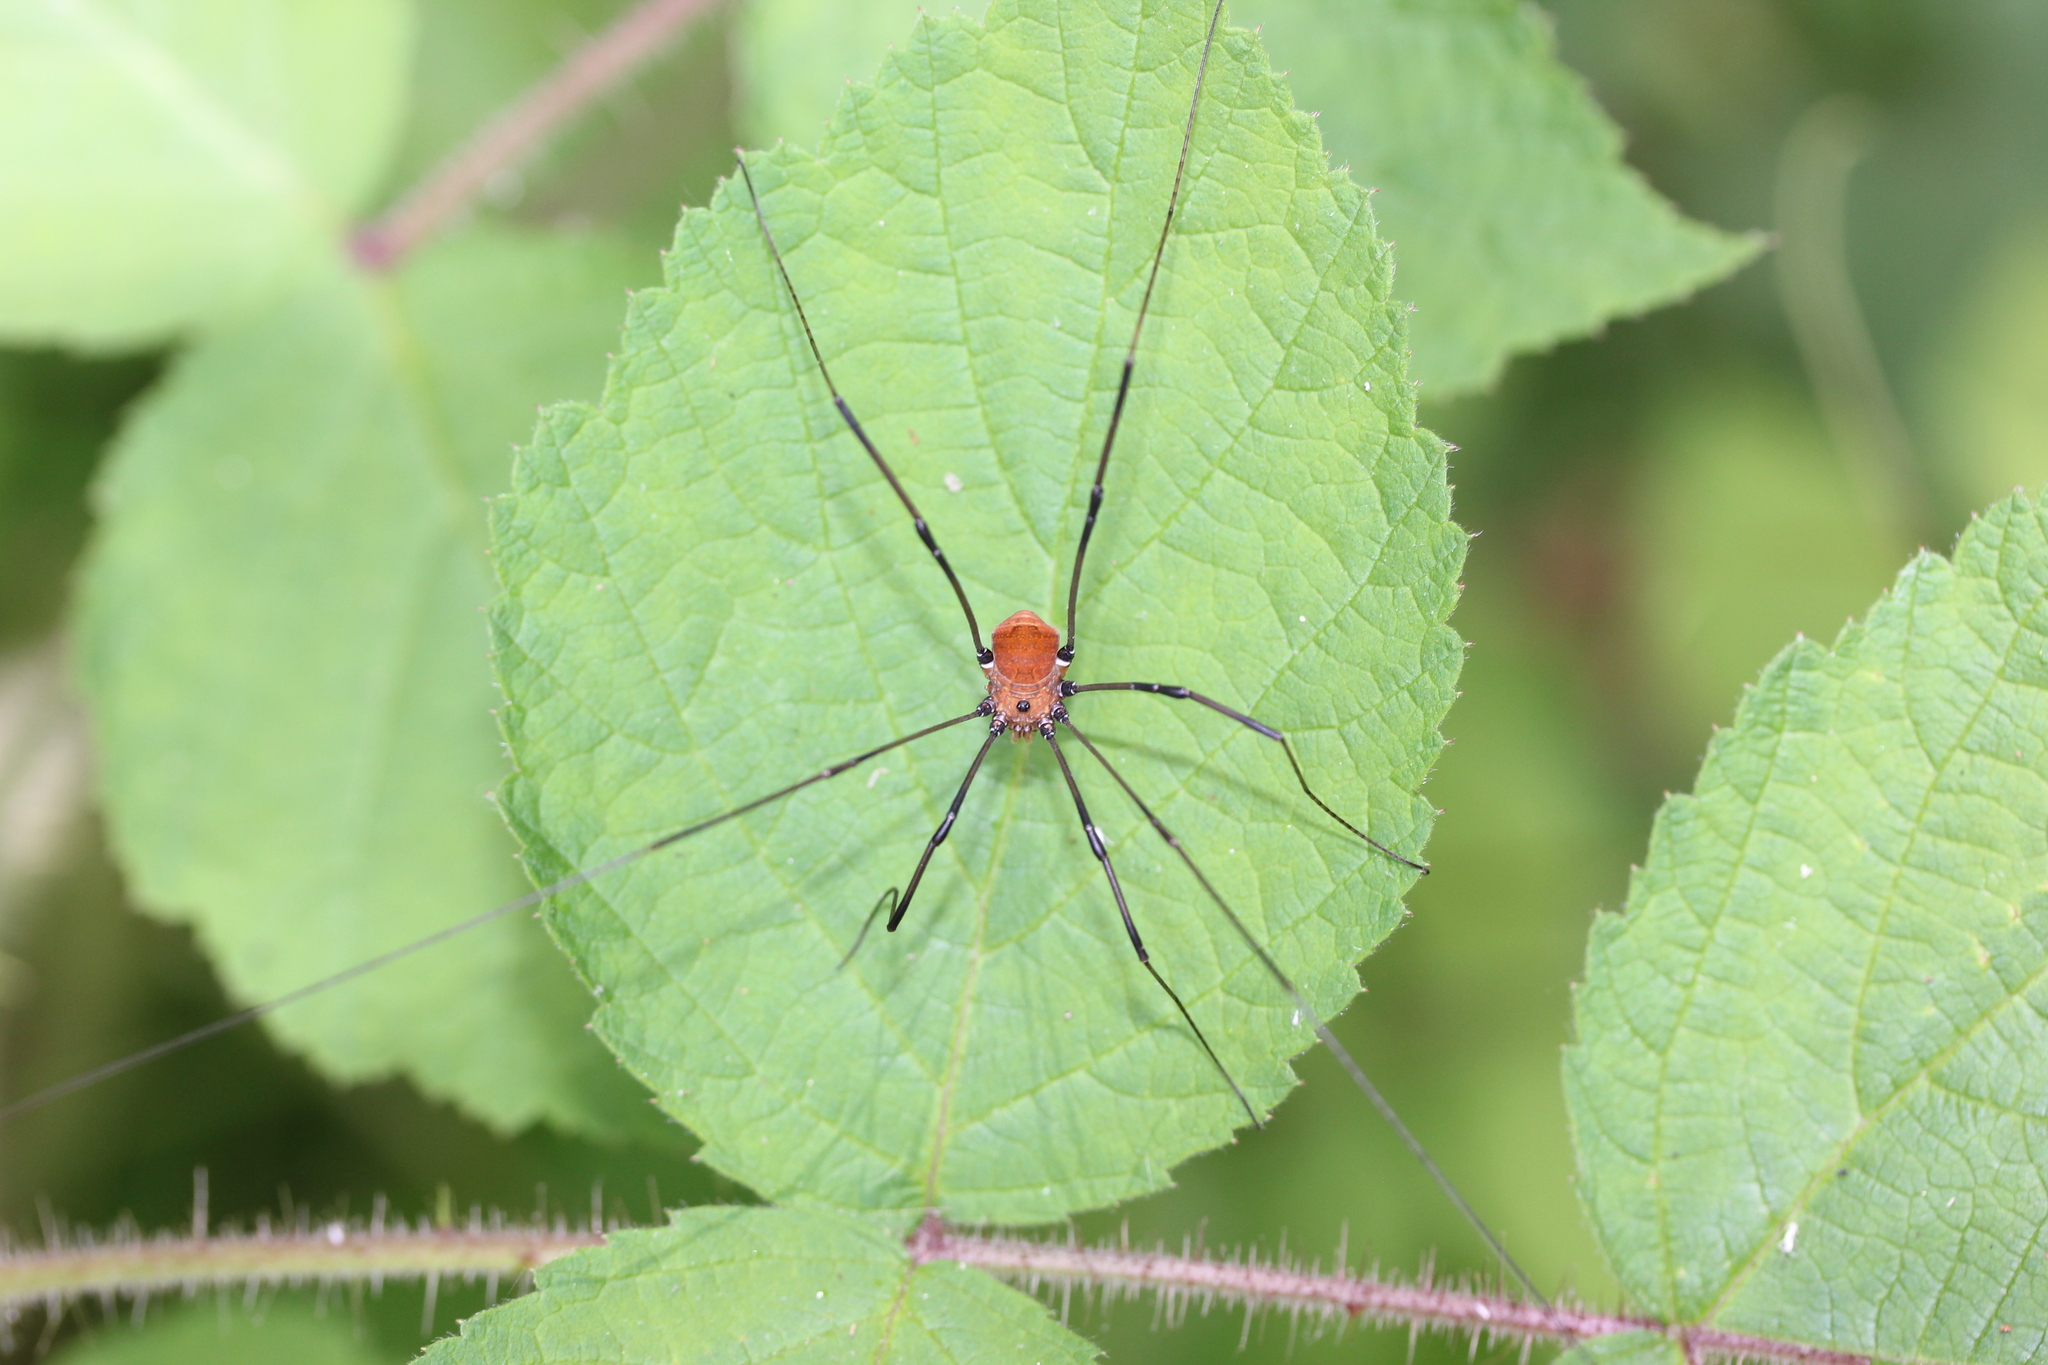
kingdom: Animalia
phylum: Arthropoda
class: Arachnida
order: Opiliones
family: Sclerosomatidae
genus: Leiobunum
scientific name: Leiobunum verrucosum
